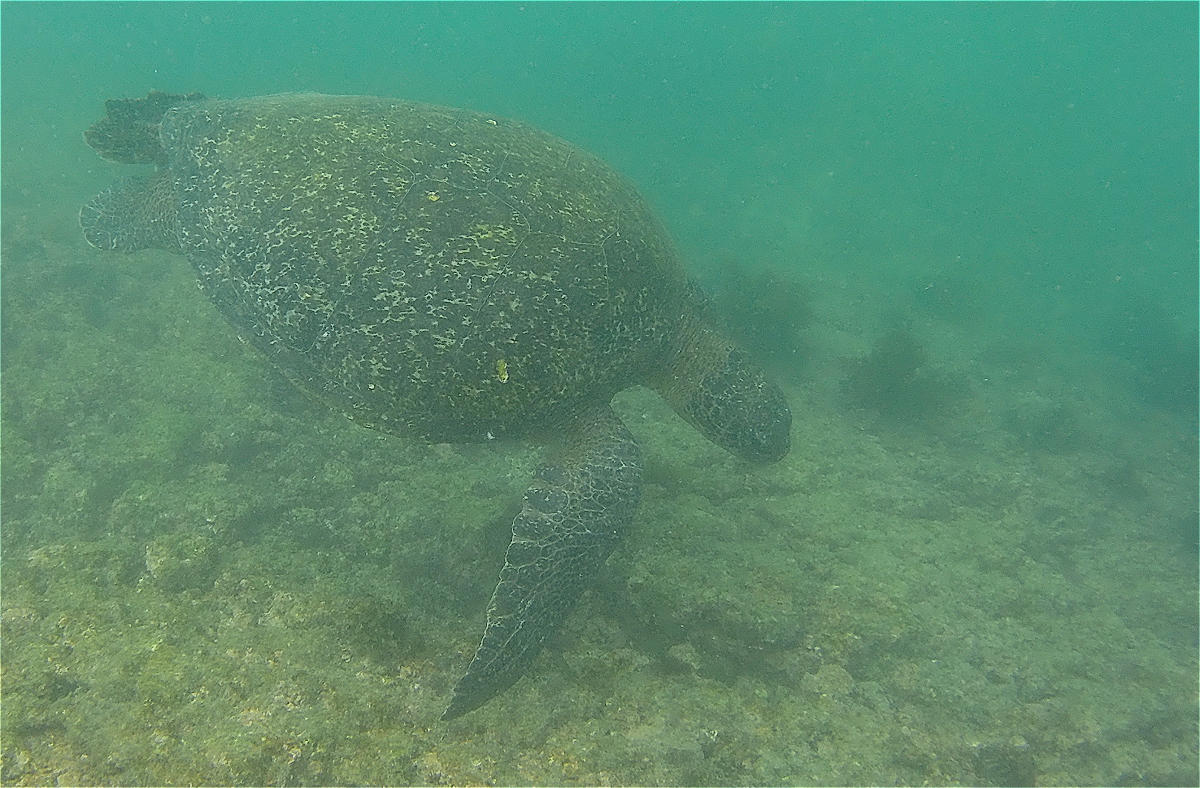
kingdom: Animalia
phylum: Chordata
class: Testudines
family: Cheloniidae
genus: Chelonia
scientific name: Chelonia mydas
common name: Green turtle
